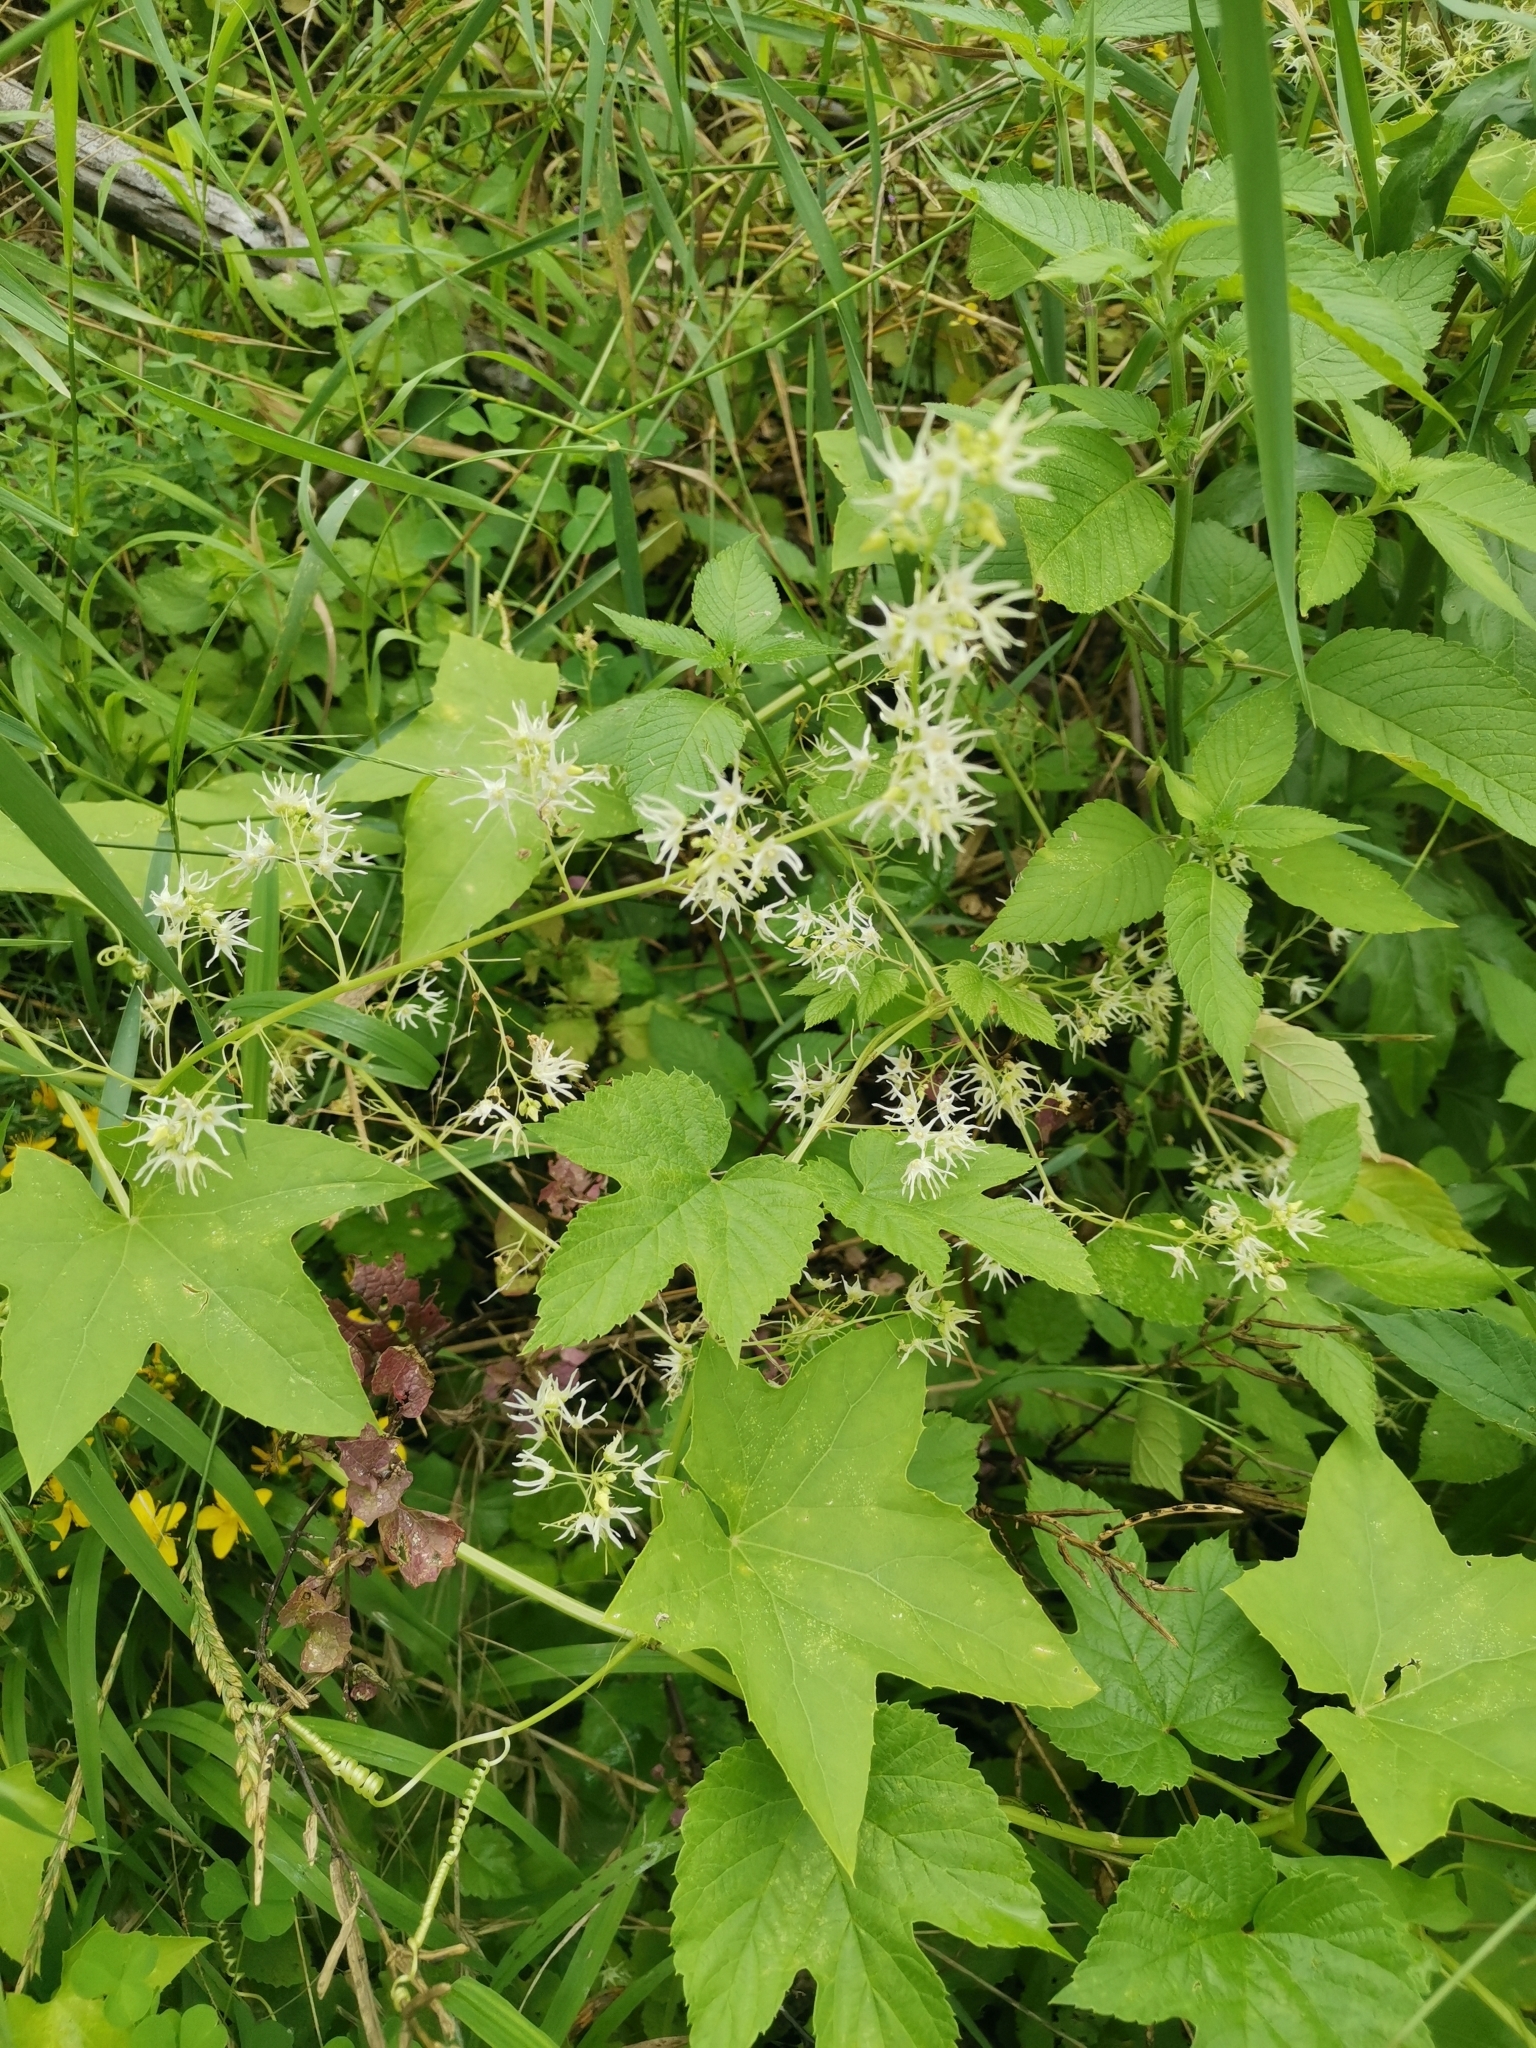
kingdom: Plantae
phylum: Tracheophyta
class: Magnoliopsida
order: Cucurbitales
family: Cucurbitaceae
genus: Echinocystis
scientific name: Echinocystis lobata
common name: Wild cucumber
